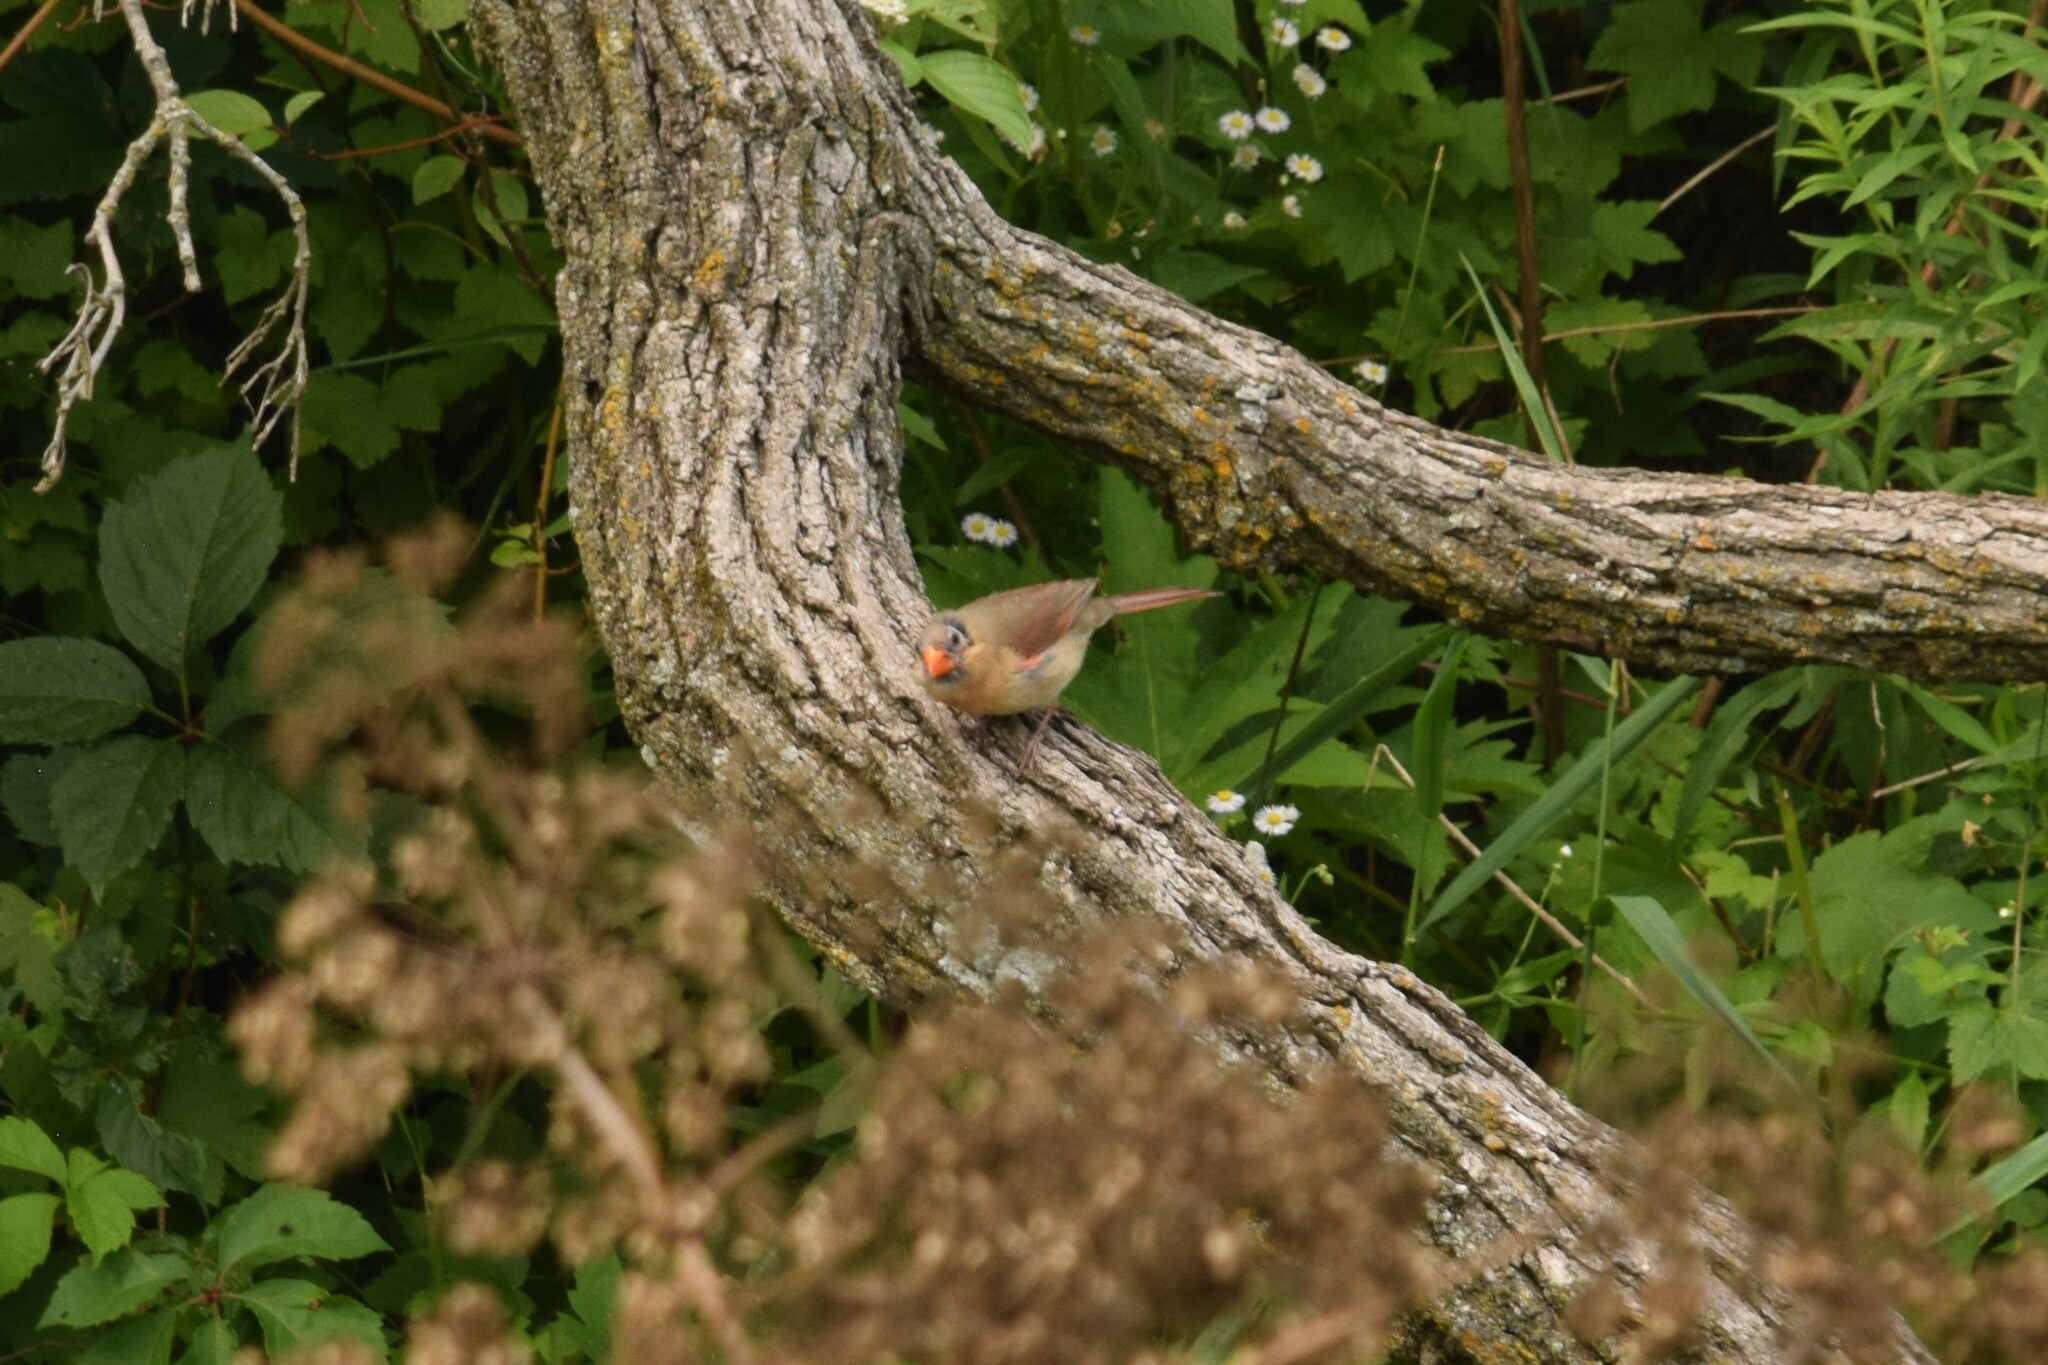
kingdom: Animalia
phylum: Chordata
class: Aves
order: Passeriformes
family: Cardinalidae
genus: Cardinalis
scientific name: Cardinalis cardinalis
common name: Northern cardinal
